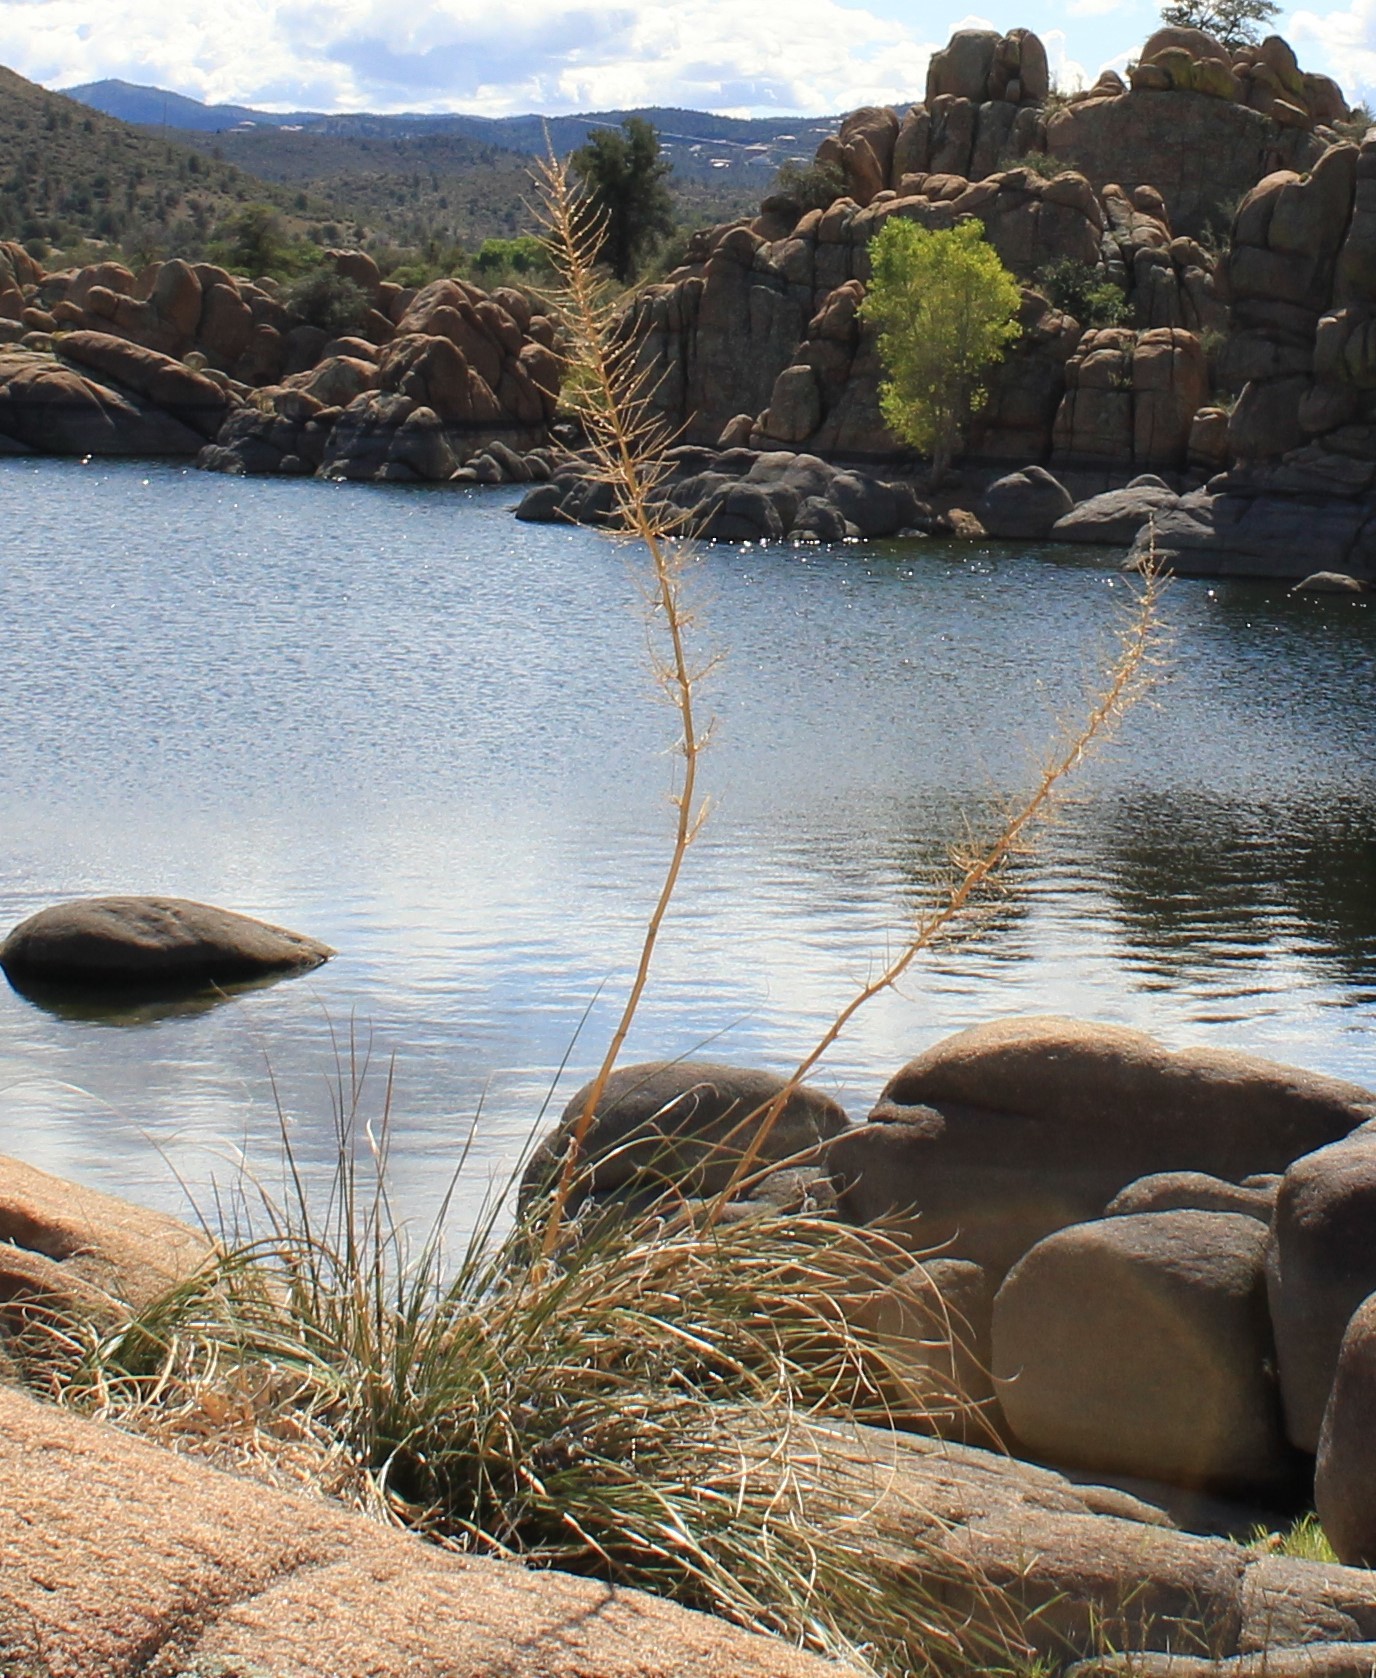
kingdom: Plantae
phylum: Tracheophyta
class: Liliopsida
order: Asparagales
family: Asparagaceae
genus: Nolina
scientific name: Nolina microcarpa
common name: Bear-grass
